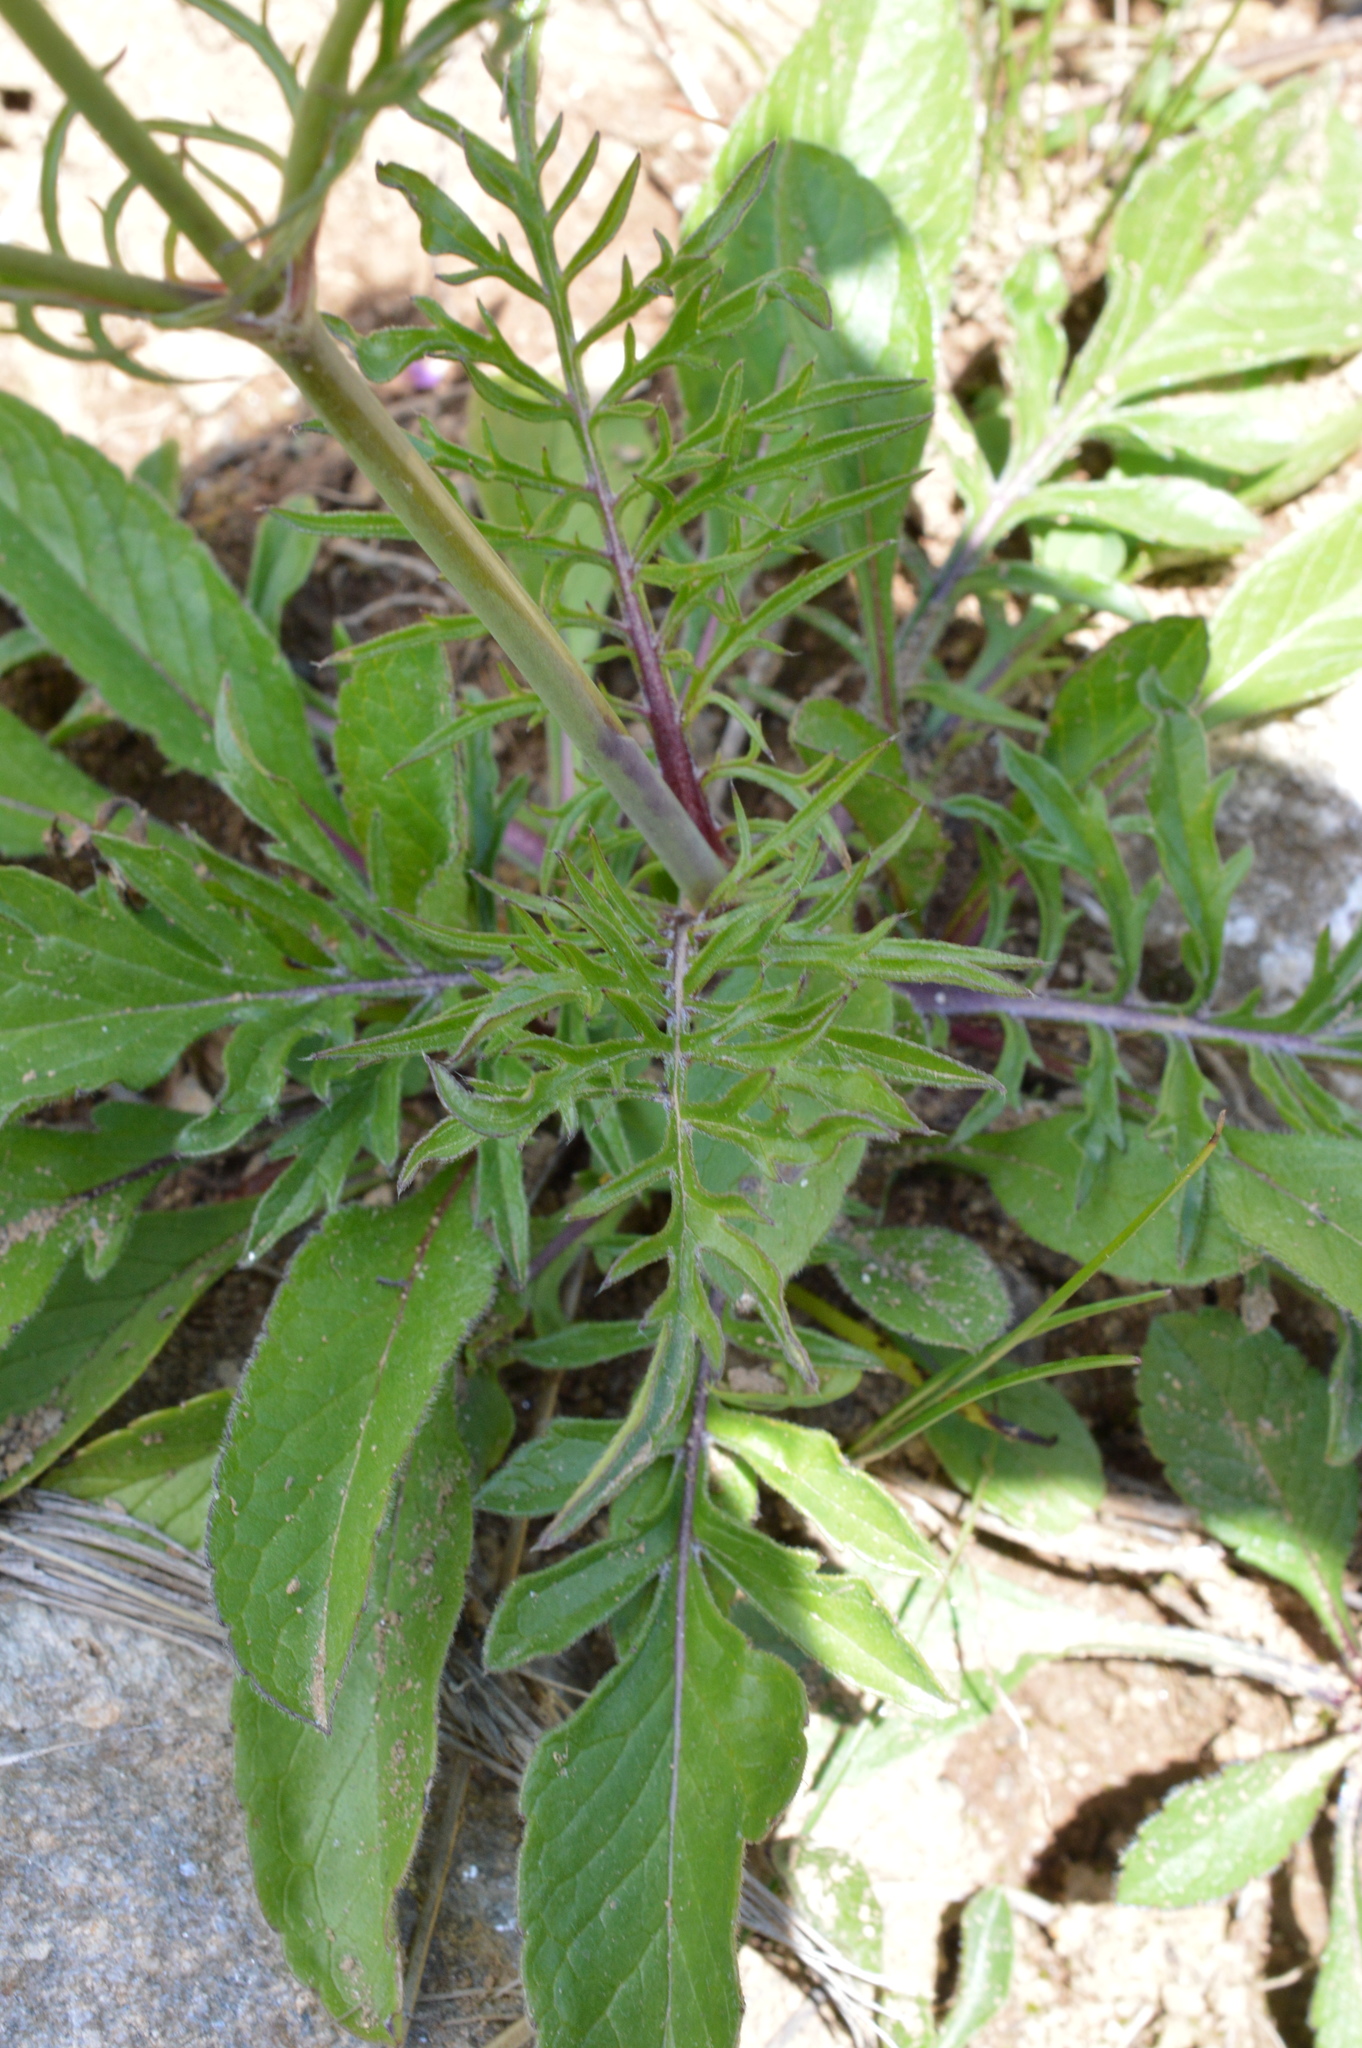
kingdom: Plantae
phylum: Tracheophyta
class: Magnoliopsida
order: Dipsacales
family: Caprifoliaceae
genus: Scabiosa
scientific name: Scabiosa lucida
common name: Shining scabious
